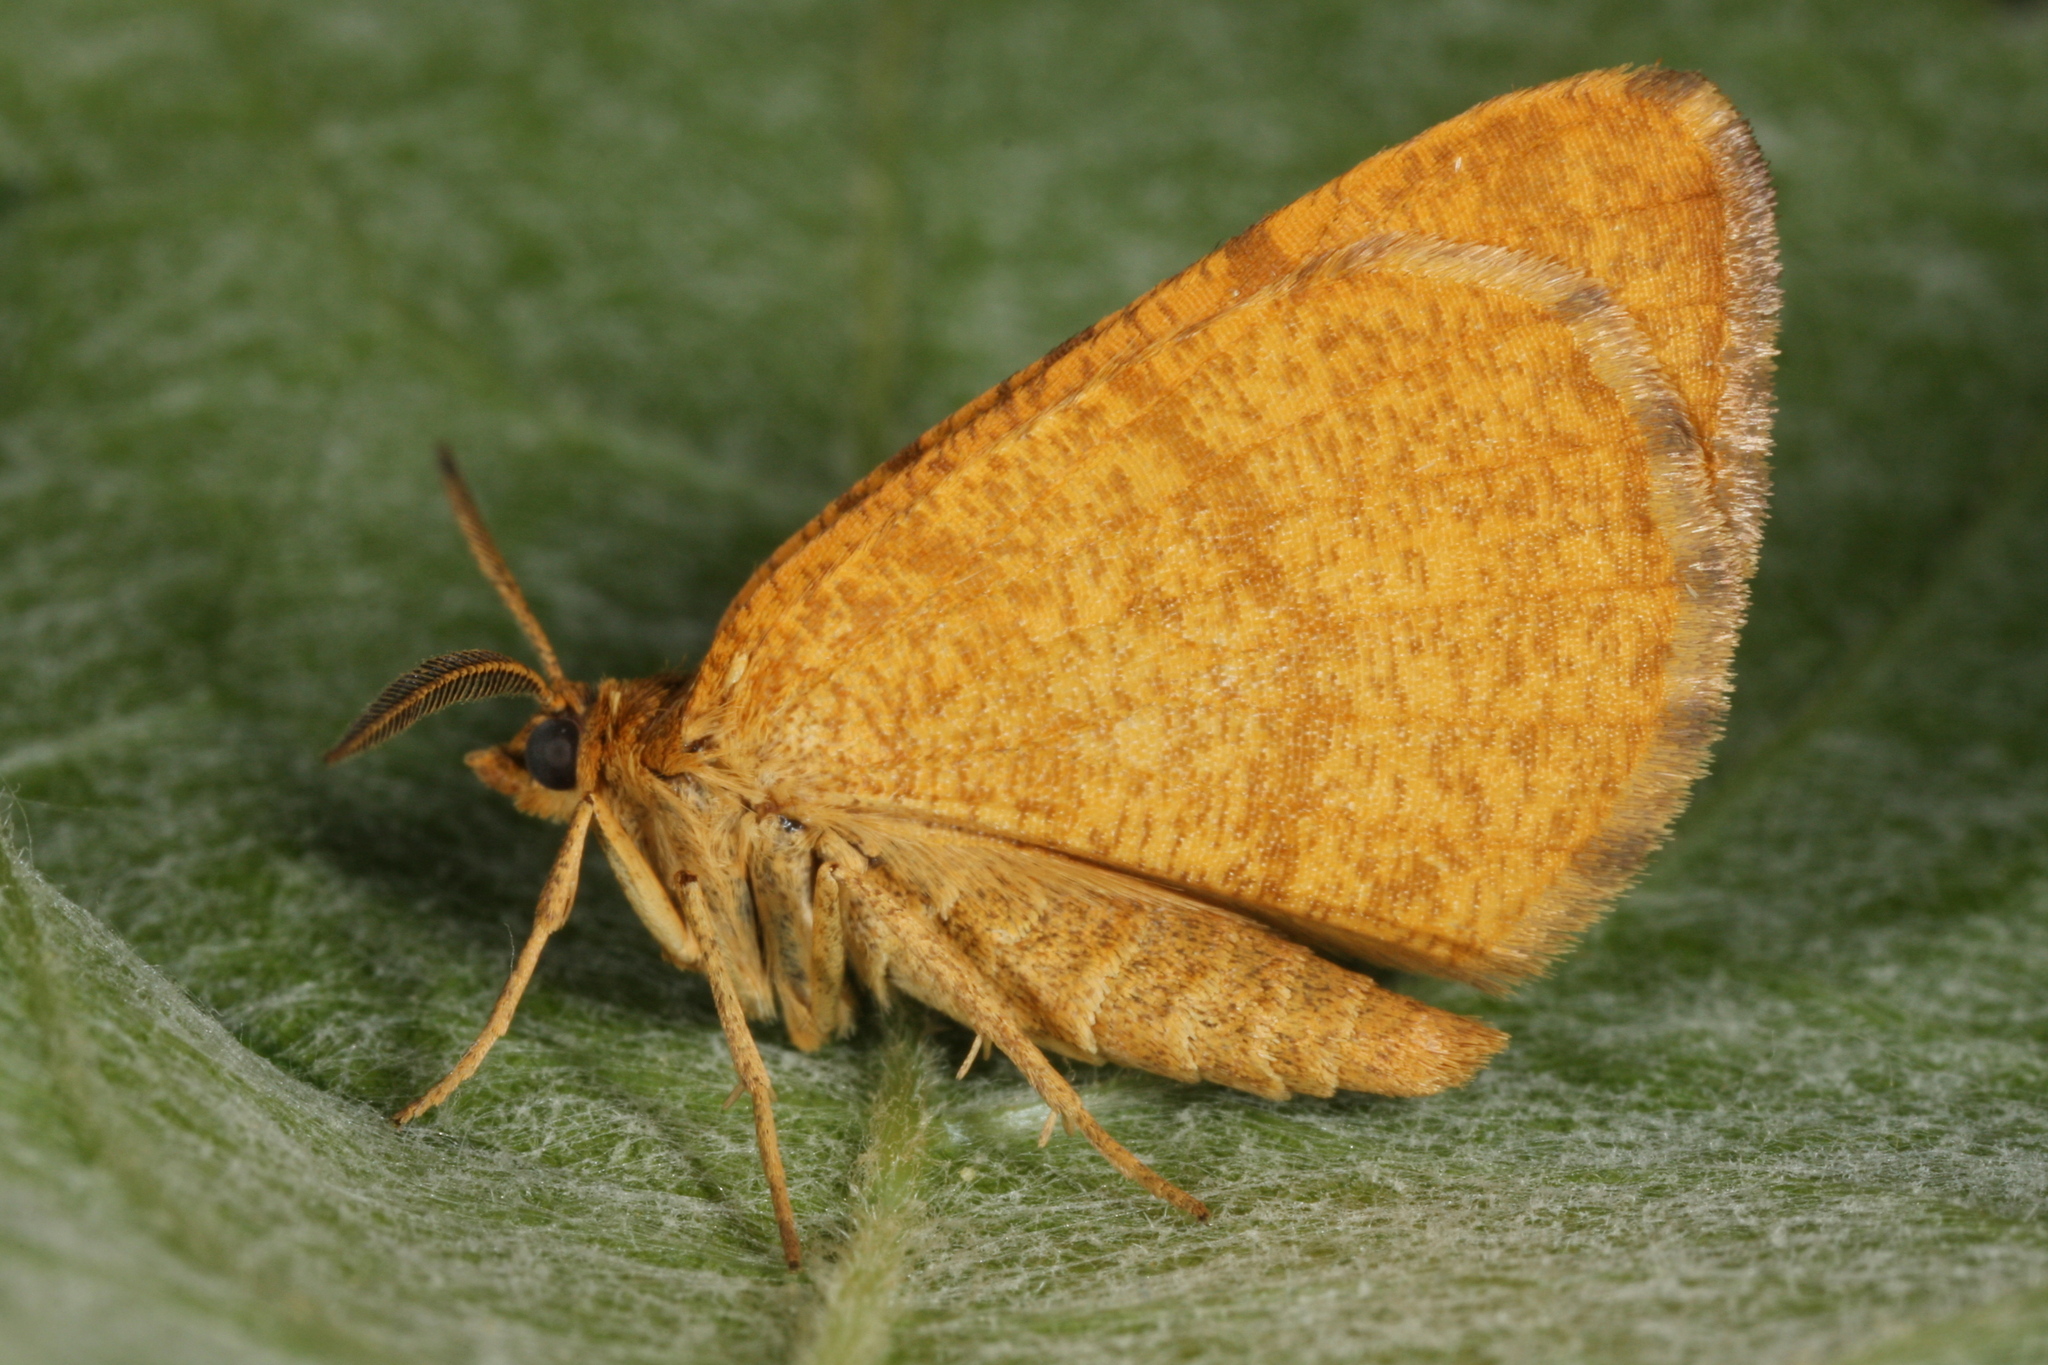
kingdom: Animalia
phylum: Arthropoda
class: Insecta
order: Lepidoptera
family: Geometridae
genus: Macaria
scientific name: Macaria brunneata
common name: Rannoch looper
